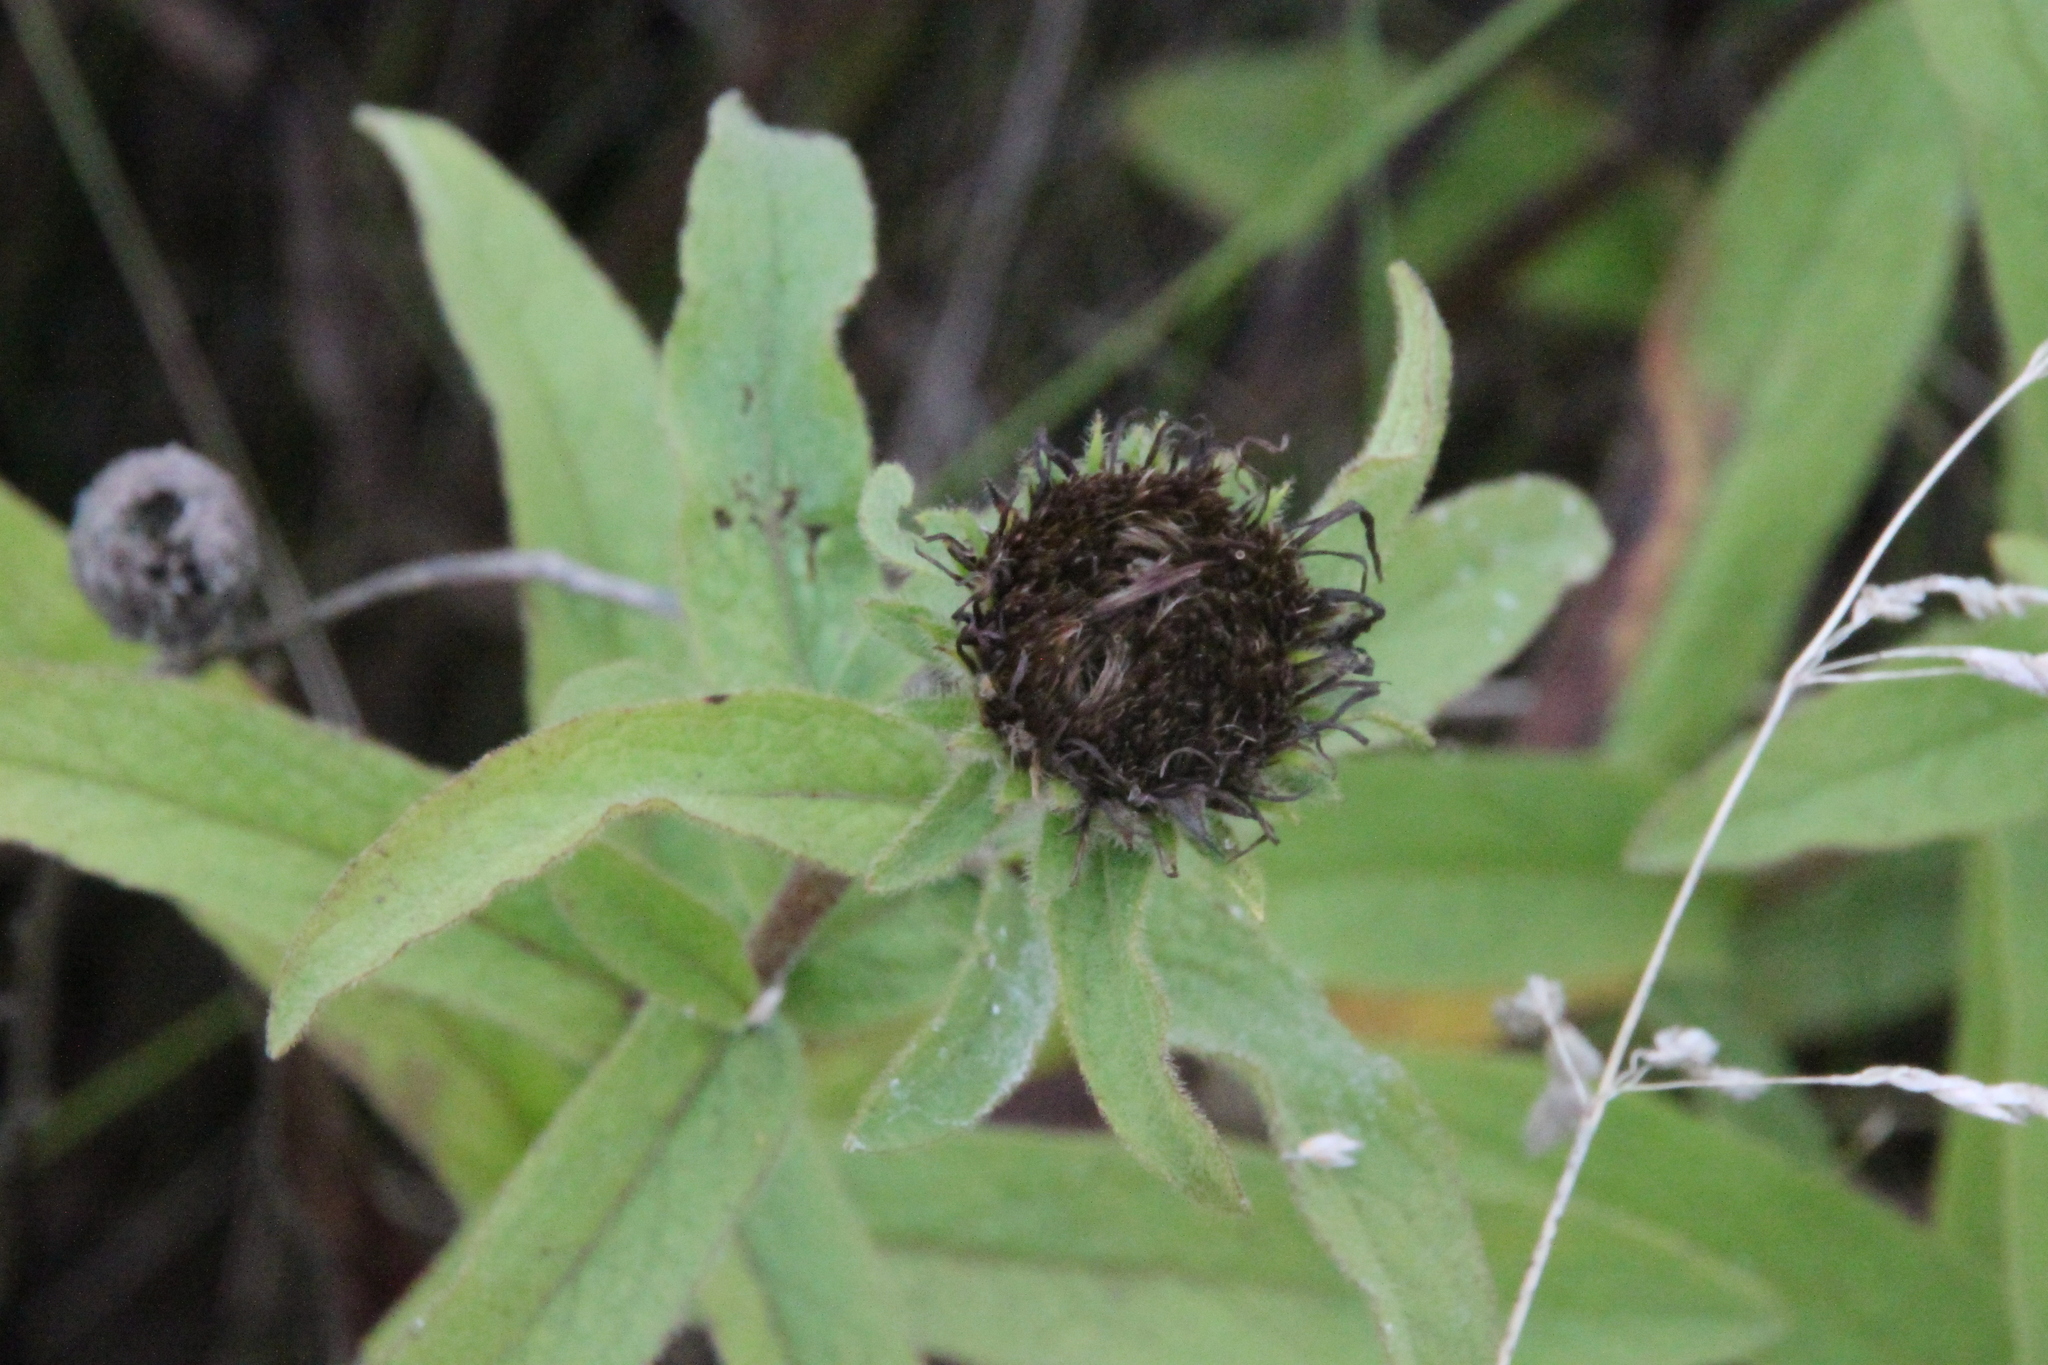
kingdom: Plantae
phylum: Tracheophyta
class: Magnoliopsida
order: Asterales
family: Asteraceae
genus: Pentanema
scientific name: Pentanema hirtum
